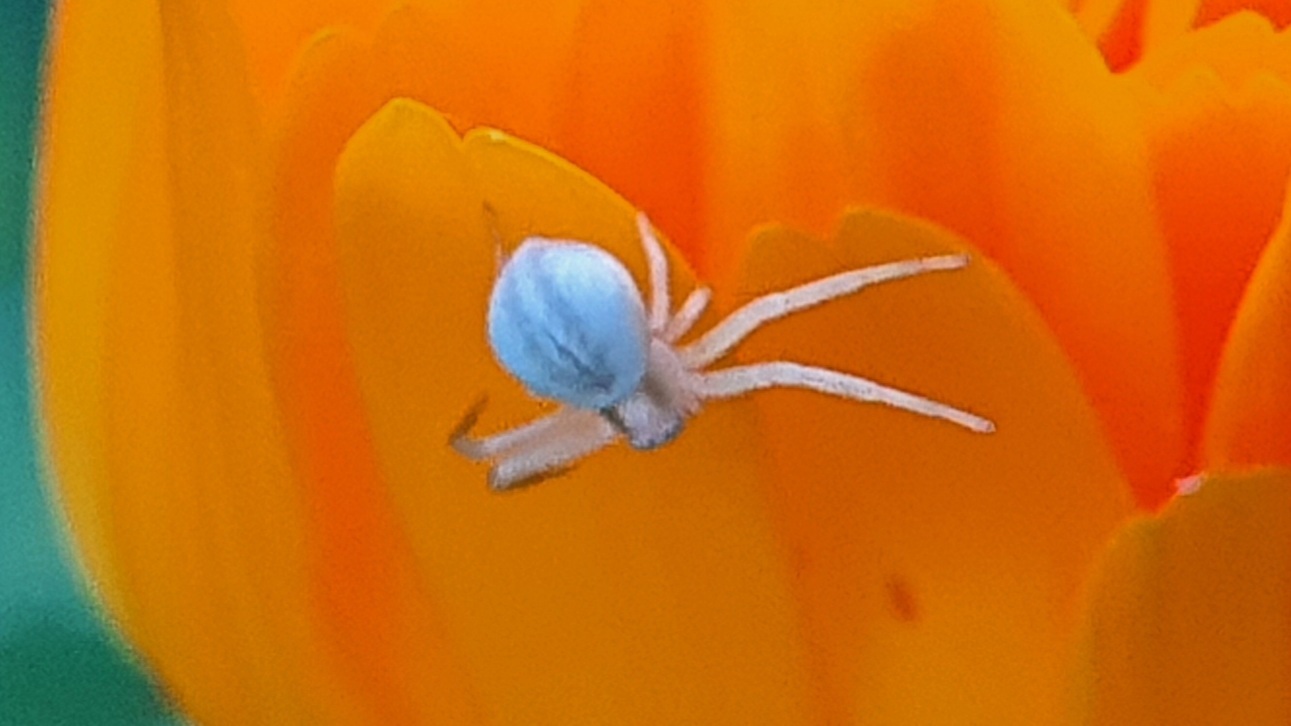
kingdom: Animalia
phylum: Arthropoda
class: Arachnida
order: Araneae
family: Thomisidae
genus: Misumena
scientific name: Misumena vatia
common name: Goldenrod crab spider
